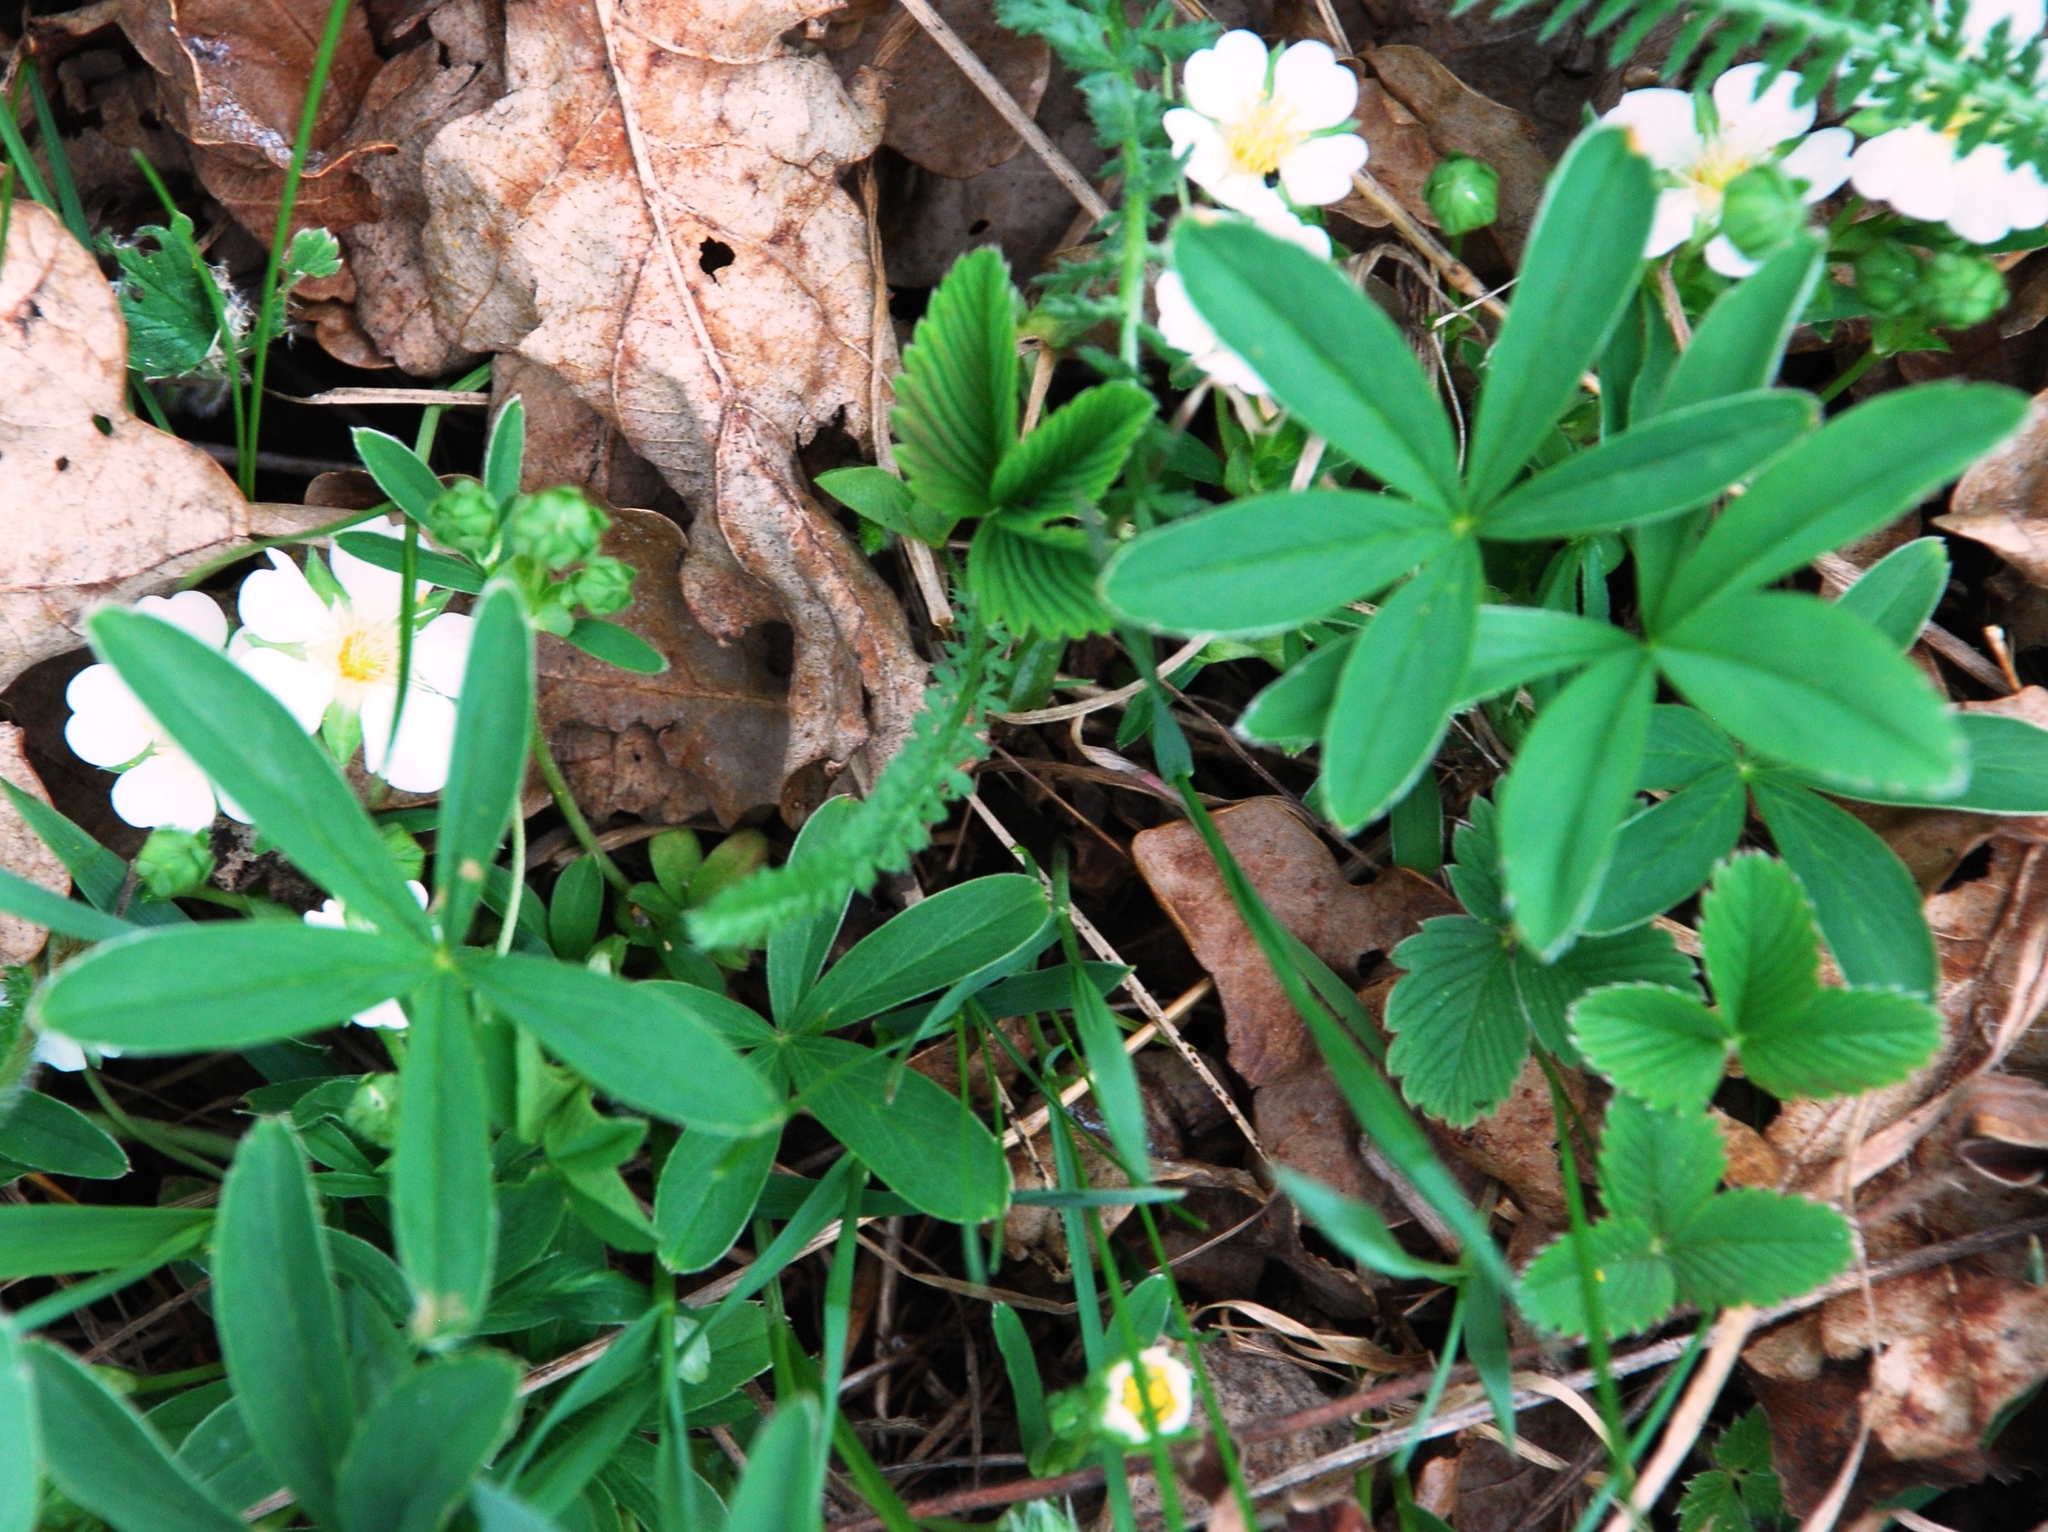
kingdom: Plantae
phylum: Tracheophyta
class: Magnoliopsida
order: Rosales
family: Rosaceae
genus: Potentilla
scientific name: Potentilla alba
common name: White cinquefoil
